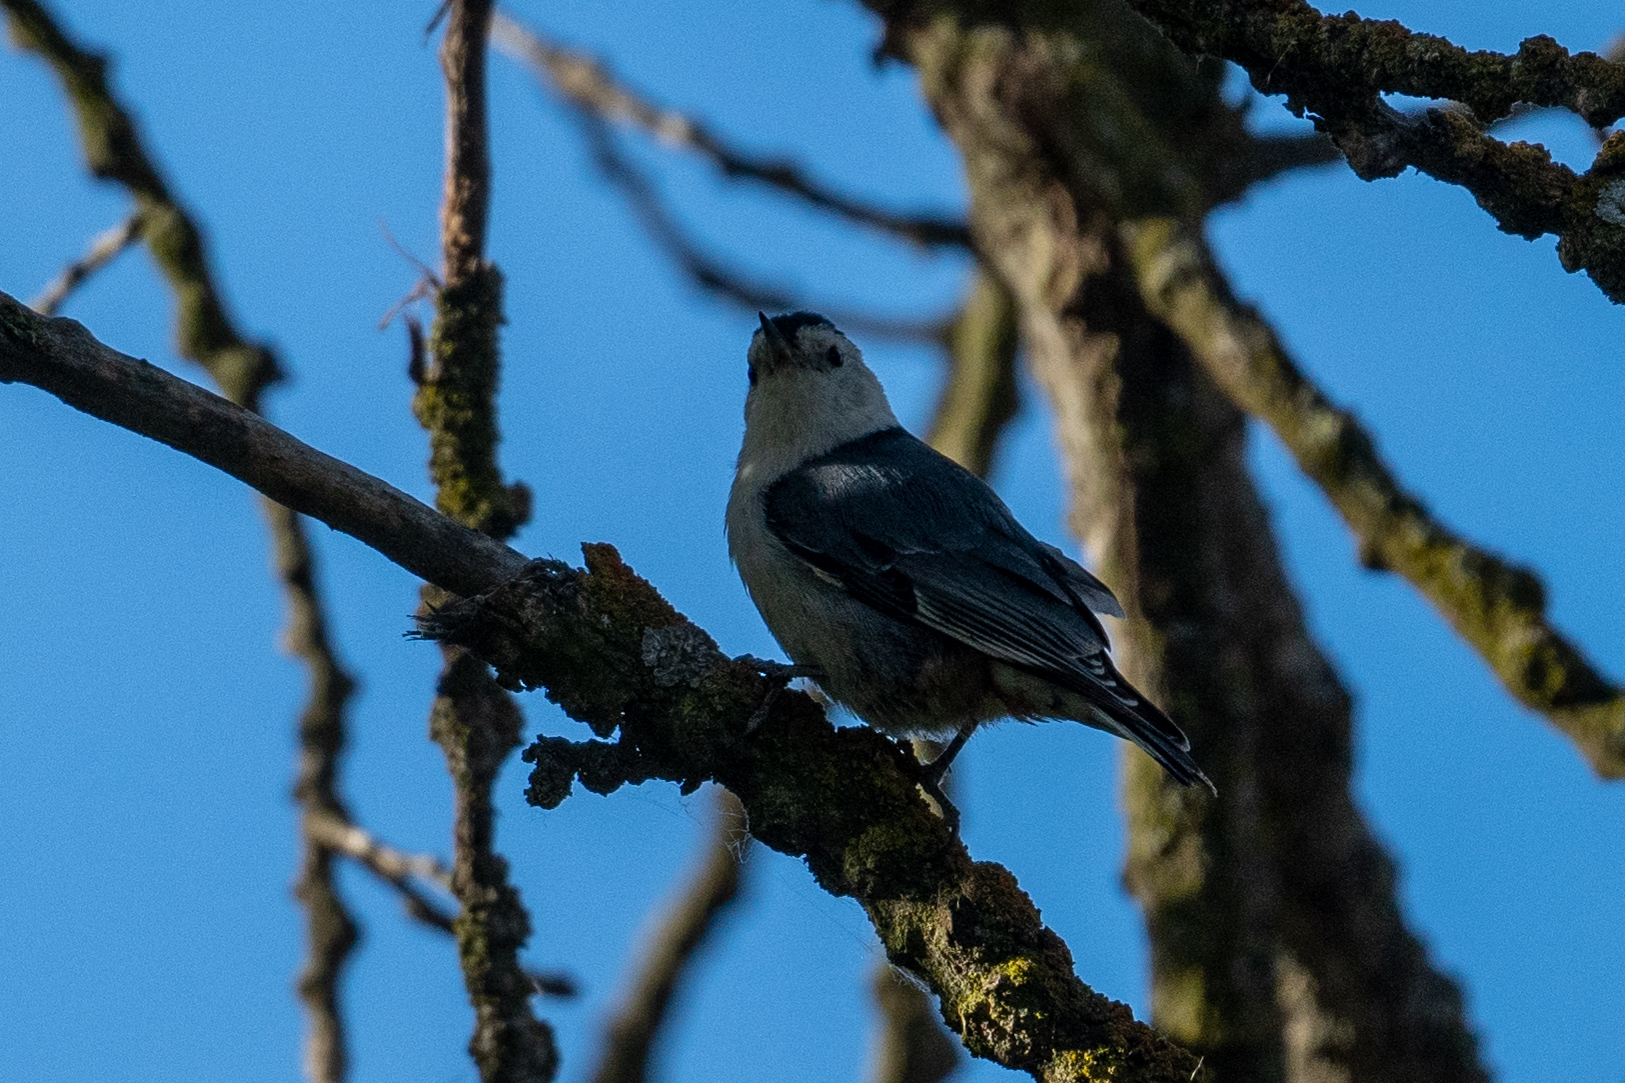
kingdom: Animalia
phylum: Chordata
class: Aves
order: Passeriformes
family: Sittidae
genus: Sitta
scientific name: Sitta carolinensis
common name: White-breasted nuthatch
